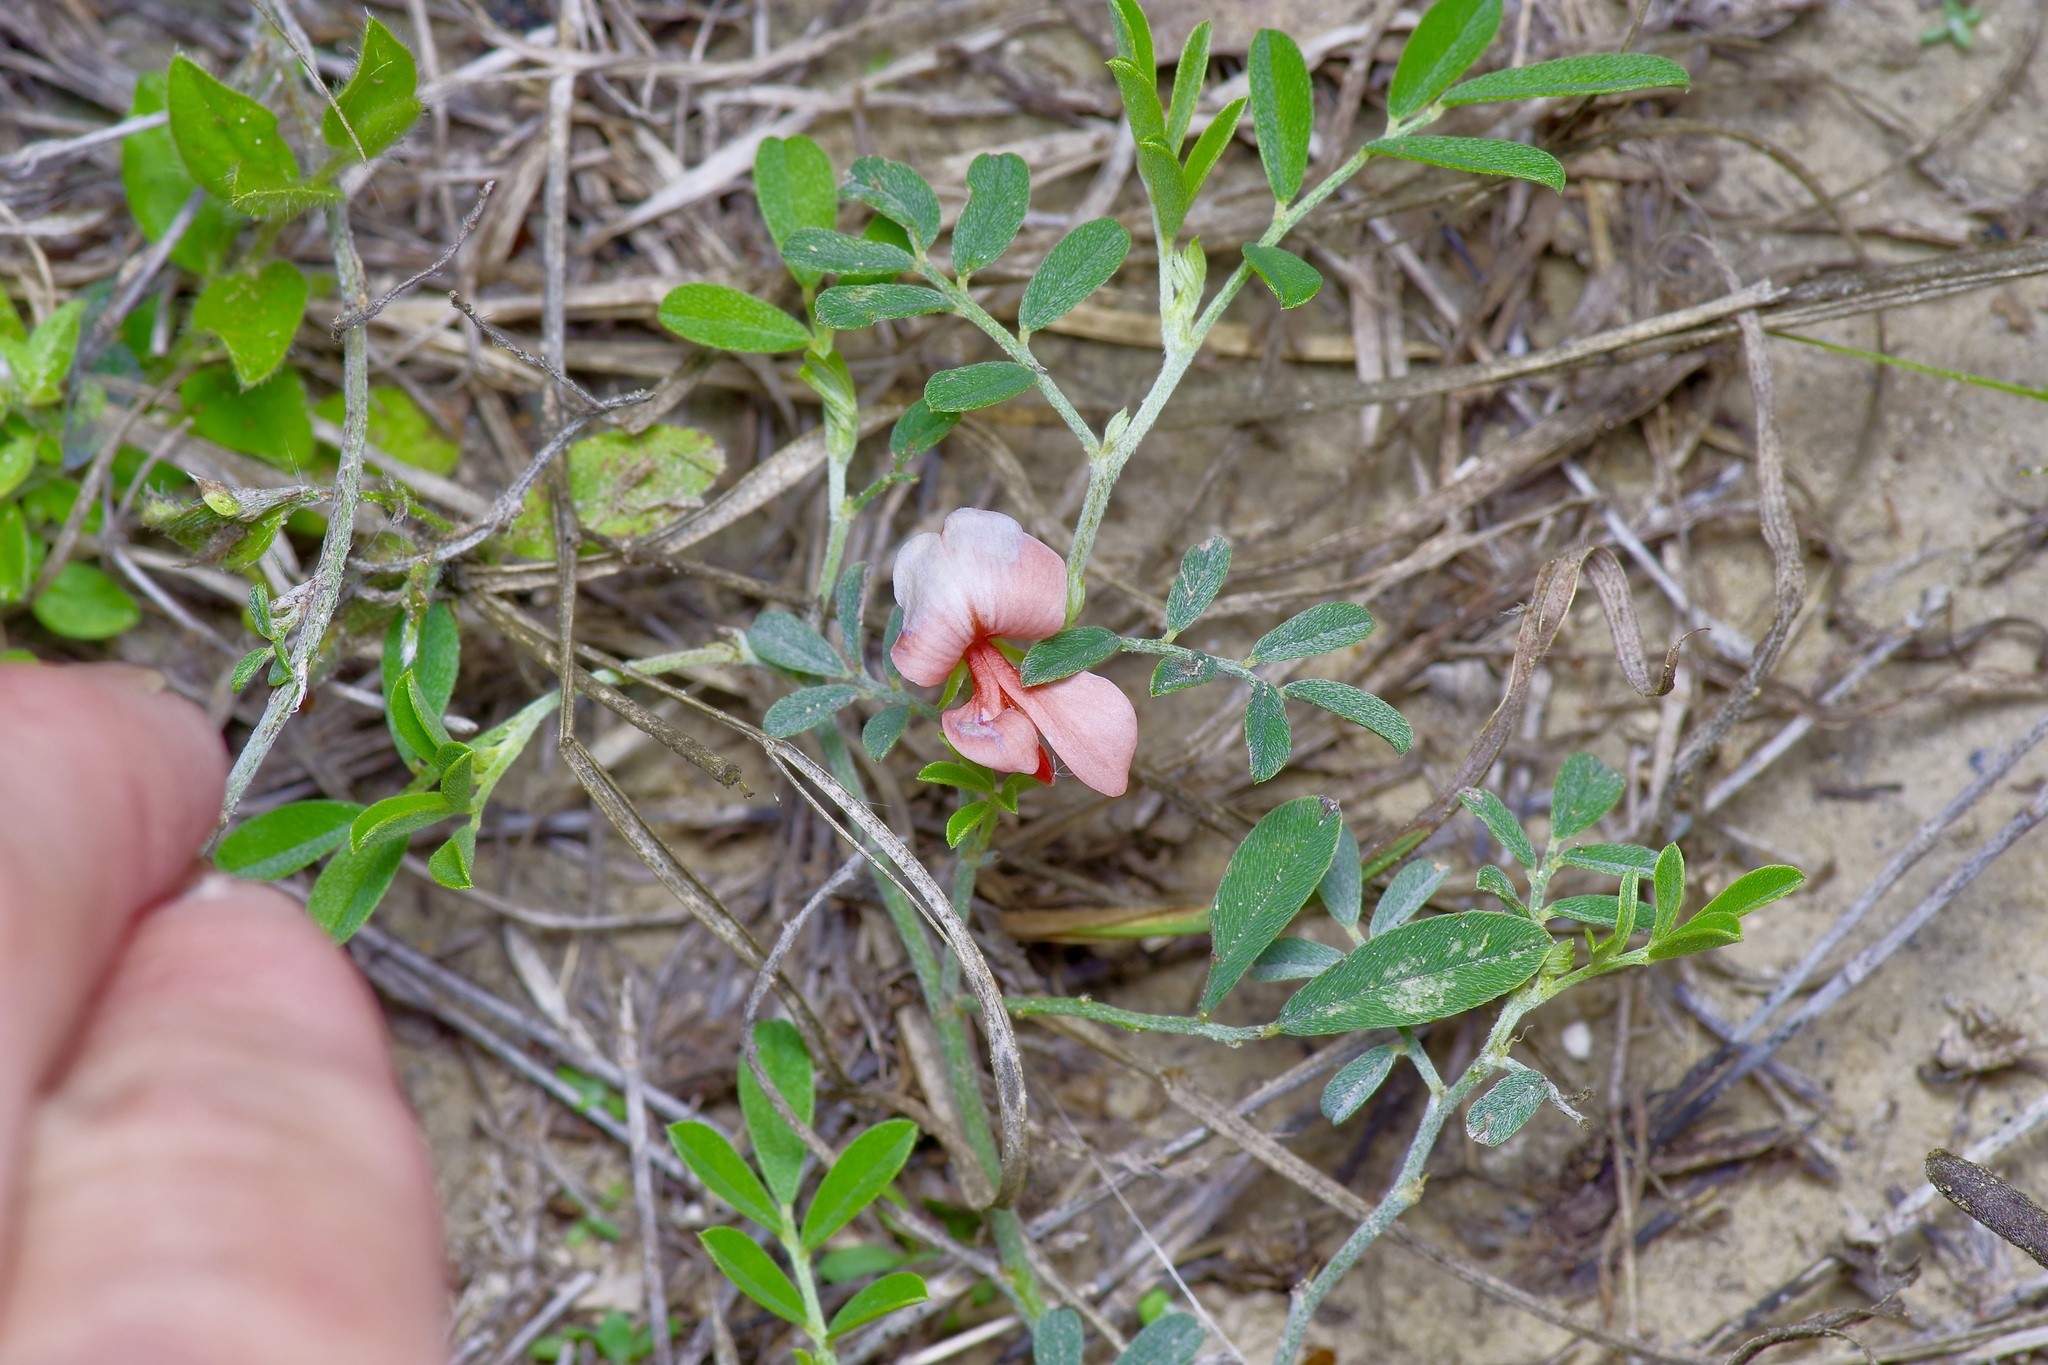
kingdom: Plantae
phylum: Tracheophyta
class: Magnoliopsida
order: Fabales
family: Fabaceae
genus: Indigofera
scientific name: Indigofera miniata
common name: Coast indigo
